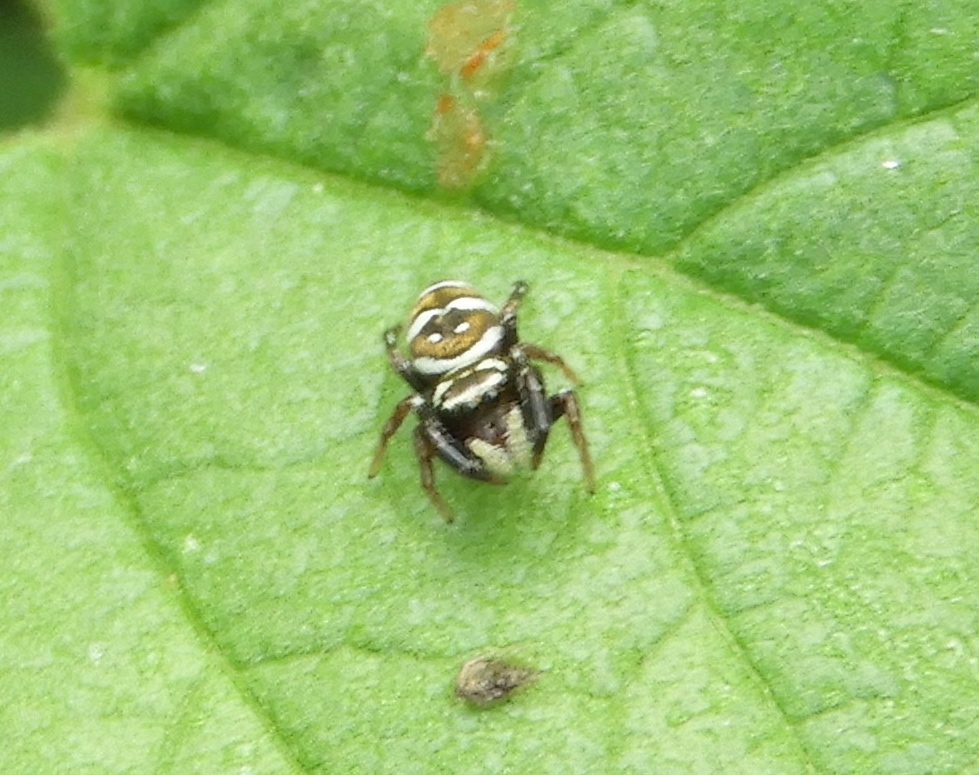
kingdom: Animalia
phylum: Arthropoda
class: Arachnida
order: Araneae
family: Salticidae
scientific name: Salticidae
